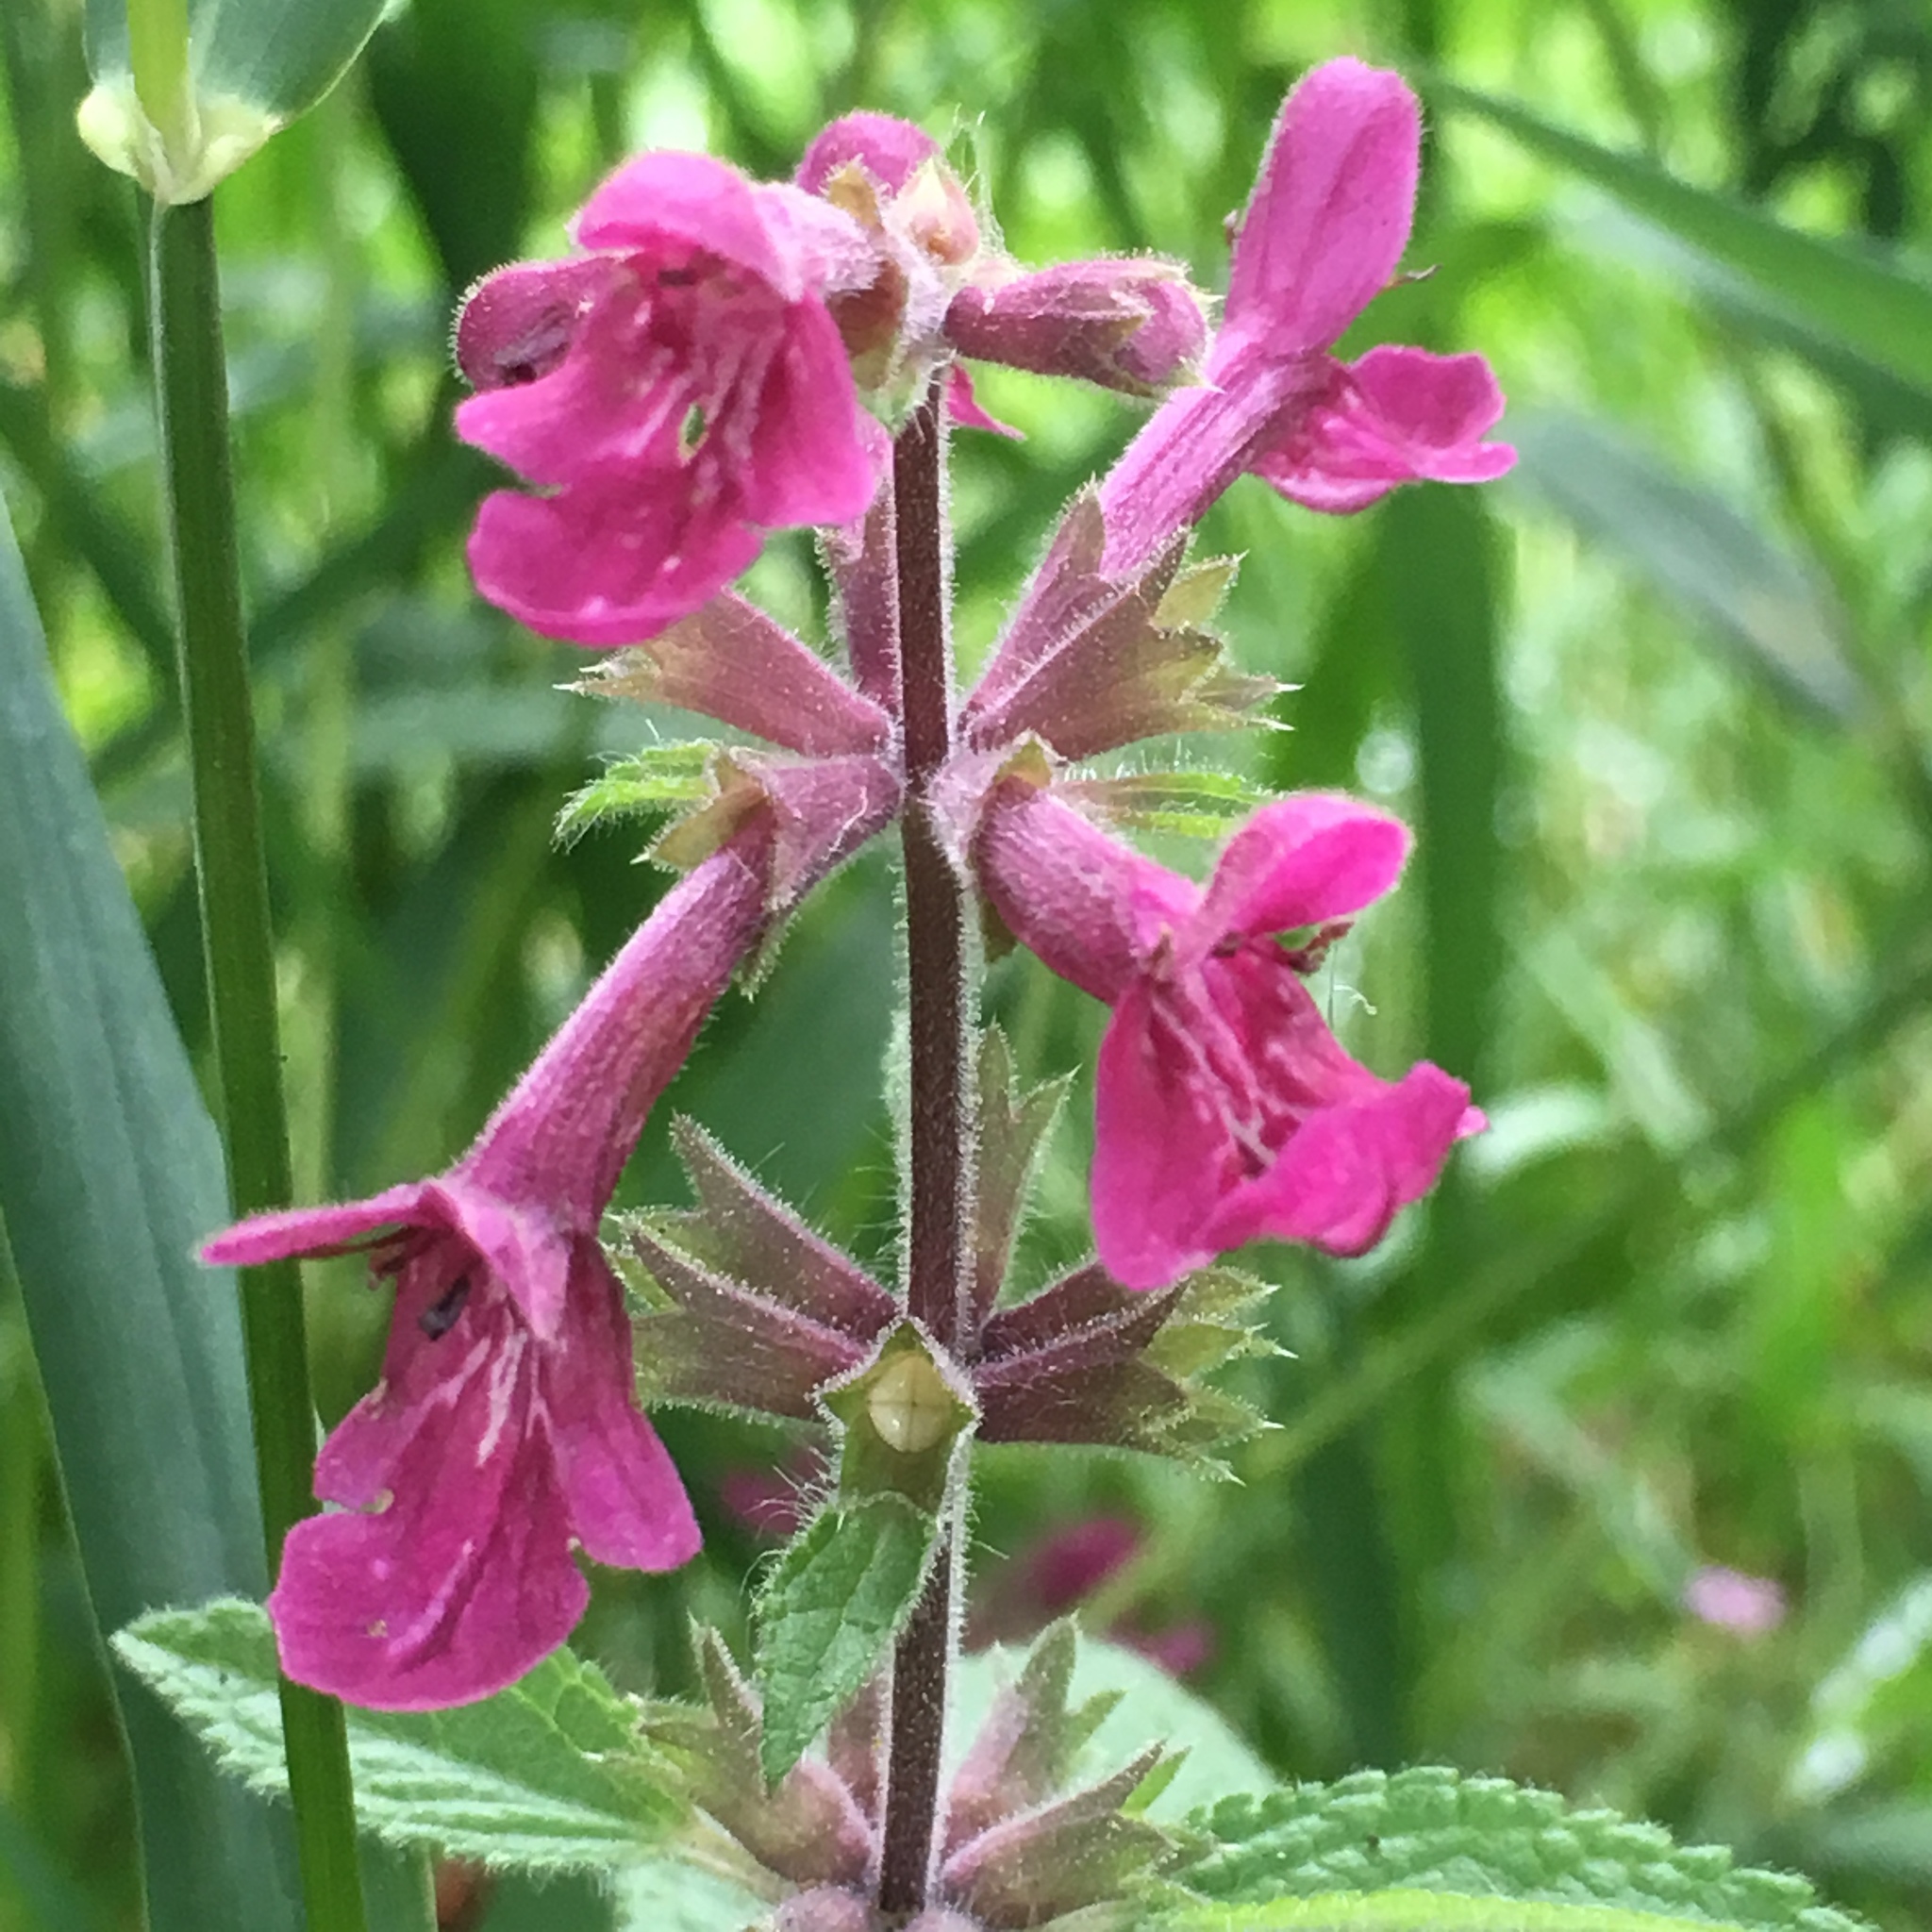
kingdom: Plantae
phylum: Tracheophyta
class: Magnoliopsida
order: Lamiales
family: Lamiaceae
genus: Stachys
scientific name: Stachys chamissonis
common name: Coastal hedge-nettle
